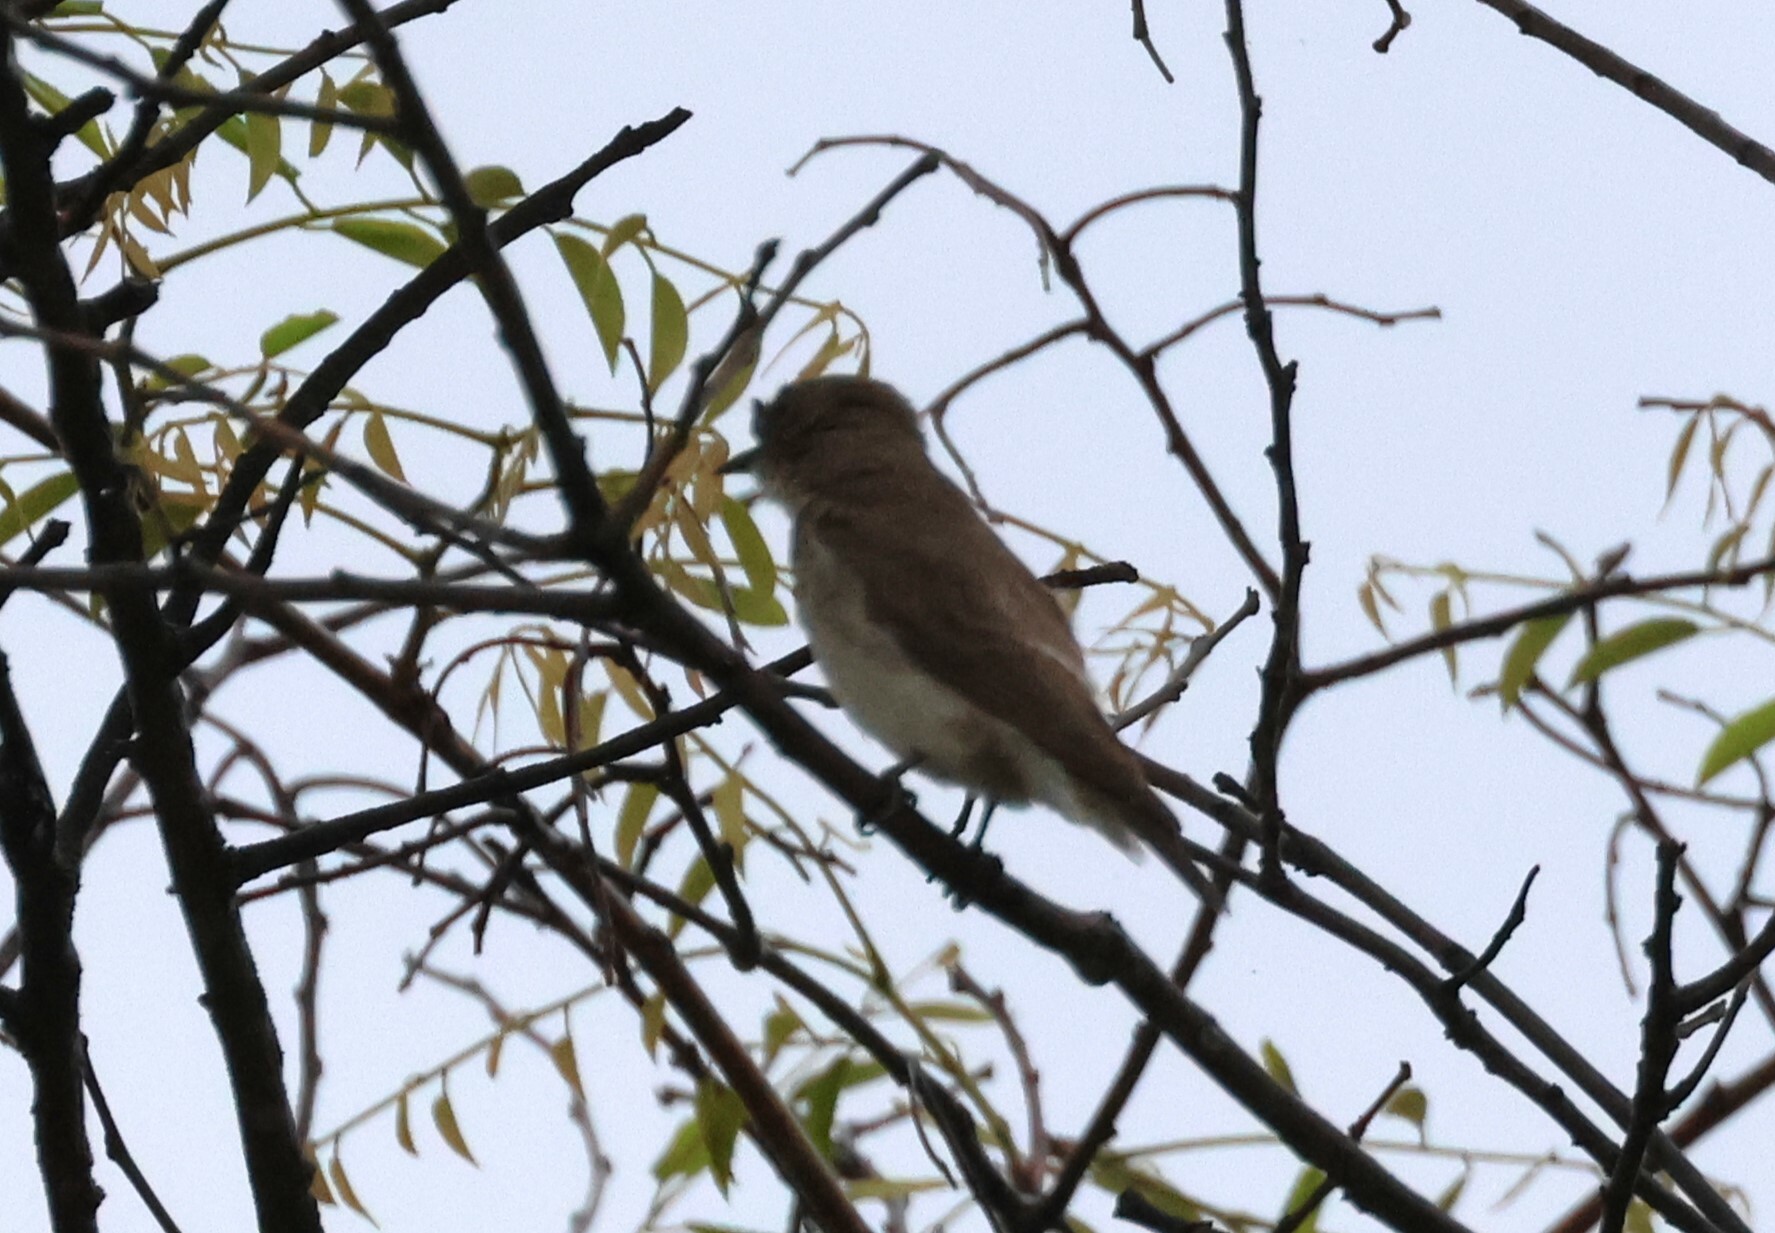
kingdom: Animalia
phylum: Chordata
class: Aves
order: Piciformes
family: Indicatoridae
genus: Prodotiscus
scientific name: Prodotiscus regulus
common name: Brown-backed honeybird
